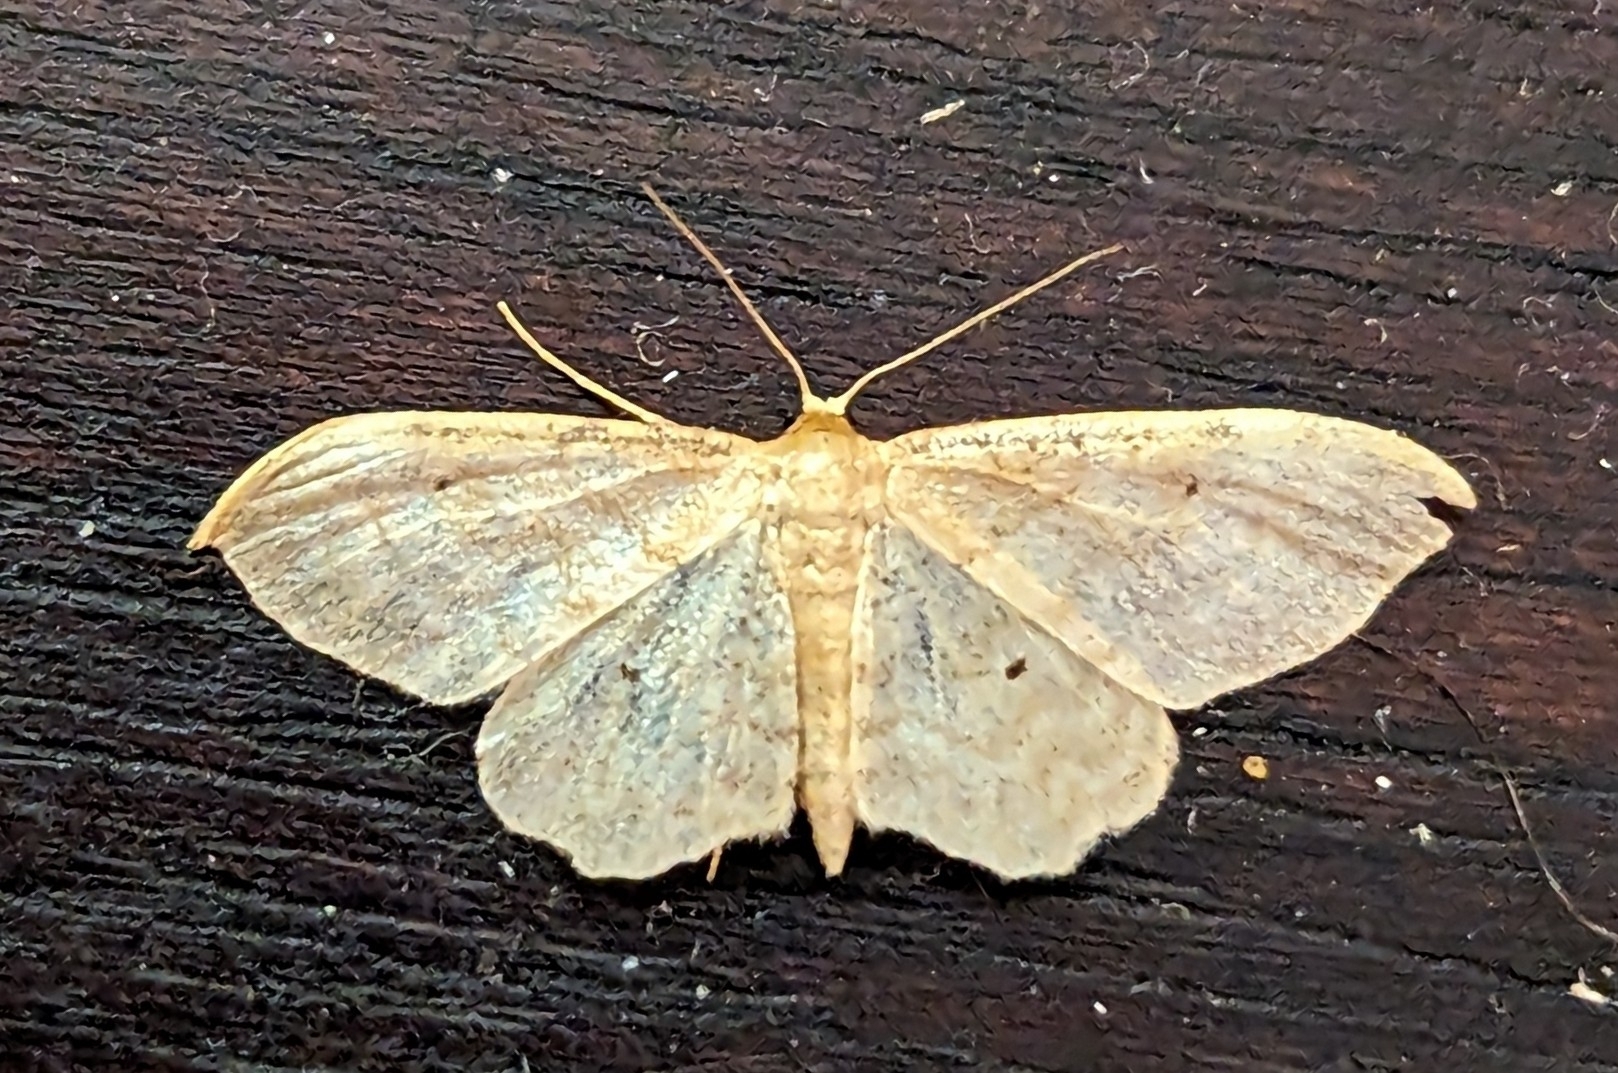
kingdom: Animalia
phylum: Arthropoda
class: Insecta
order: Lepidoptera
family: Geometridae
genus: Idaea
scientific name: Idaea fuscovenosa
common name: Dwarf cream wave
